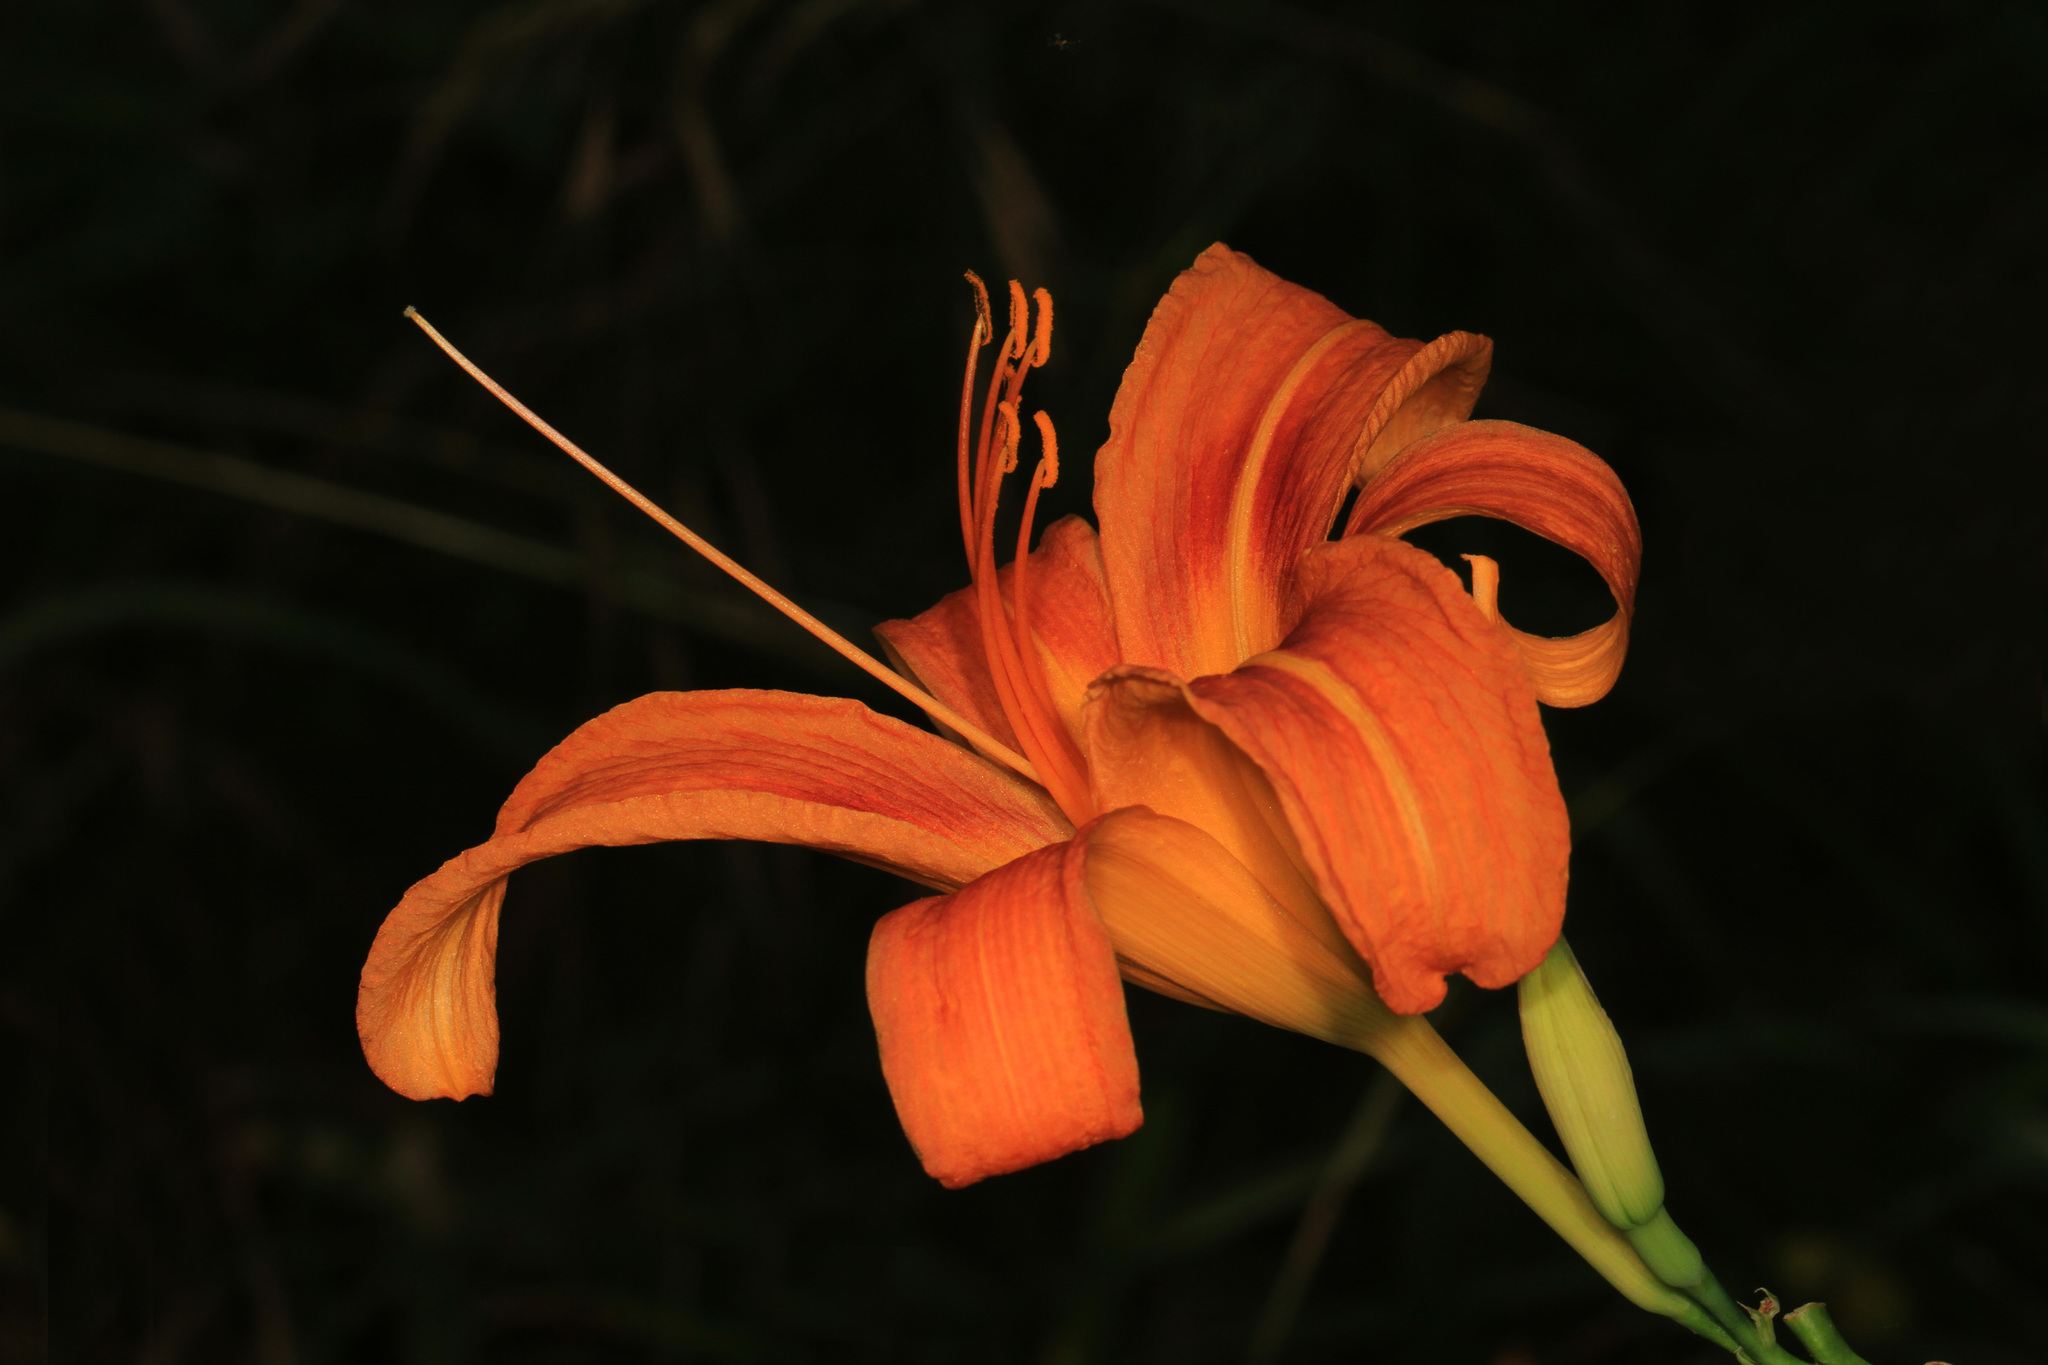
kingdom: Plantae
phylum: Tracheophyta
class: Liliopsida
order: Asparagales
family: Asphodelaceae
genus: Hemerocallis
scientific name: Hemerocallis fulva
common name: Orange day-lily
